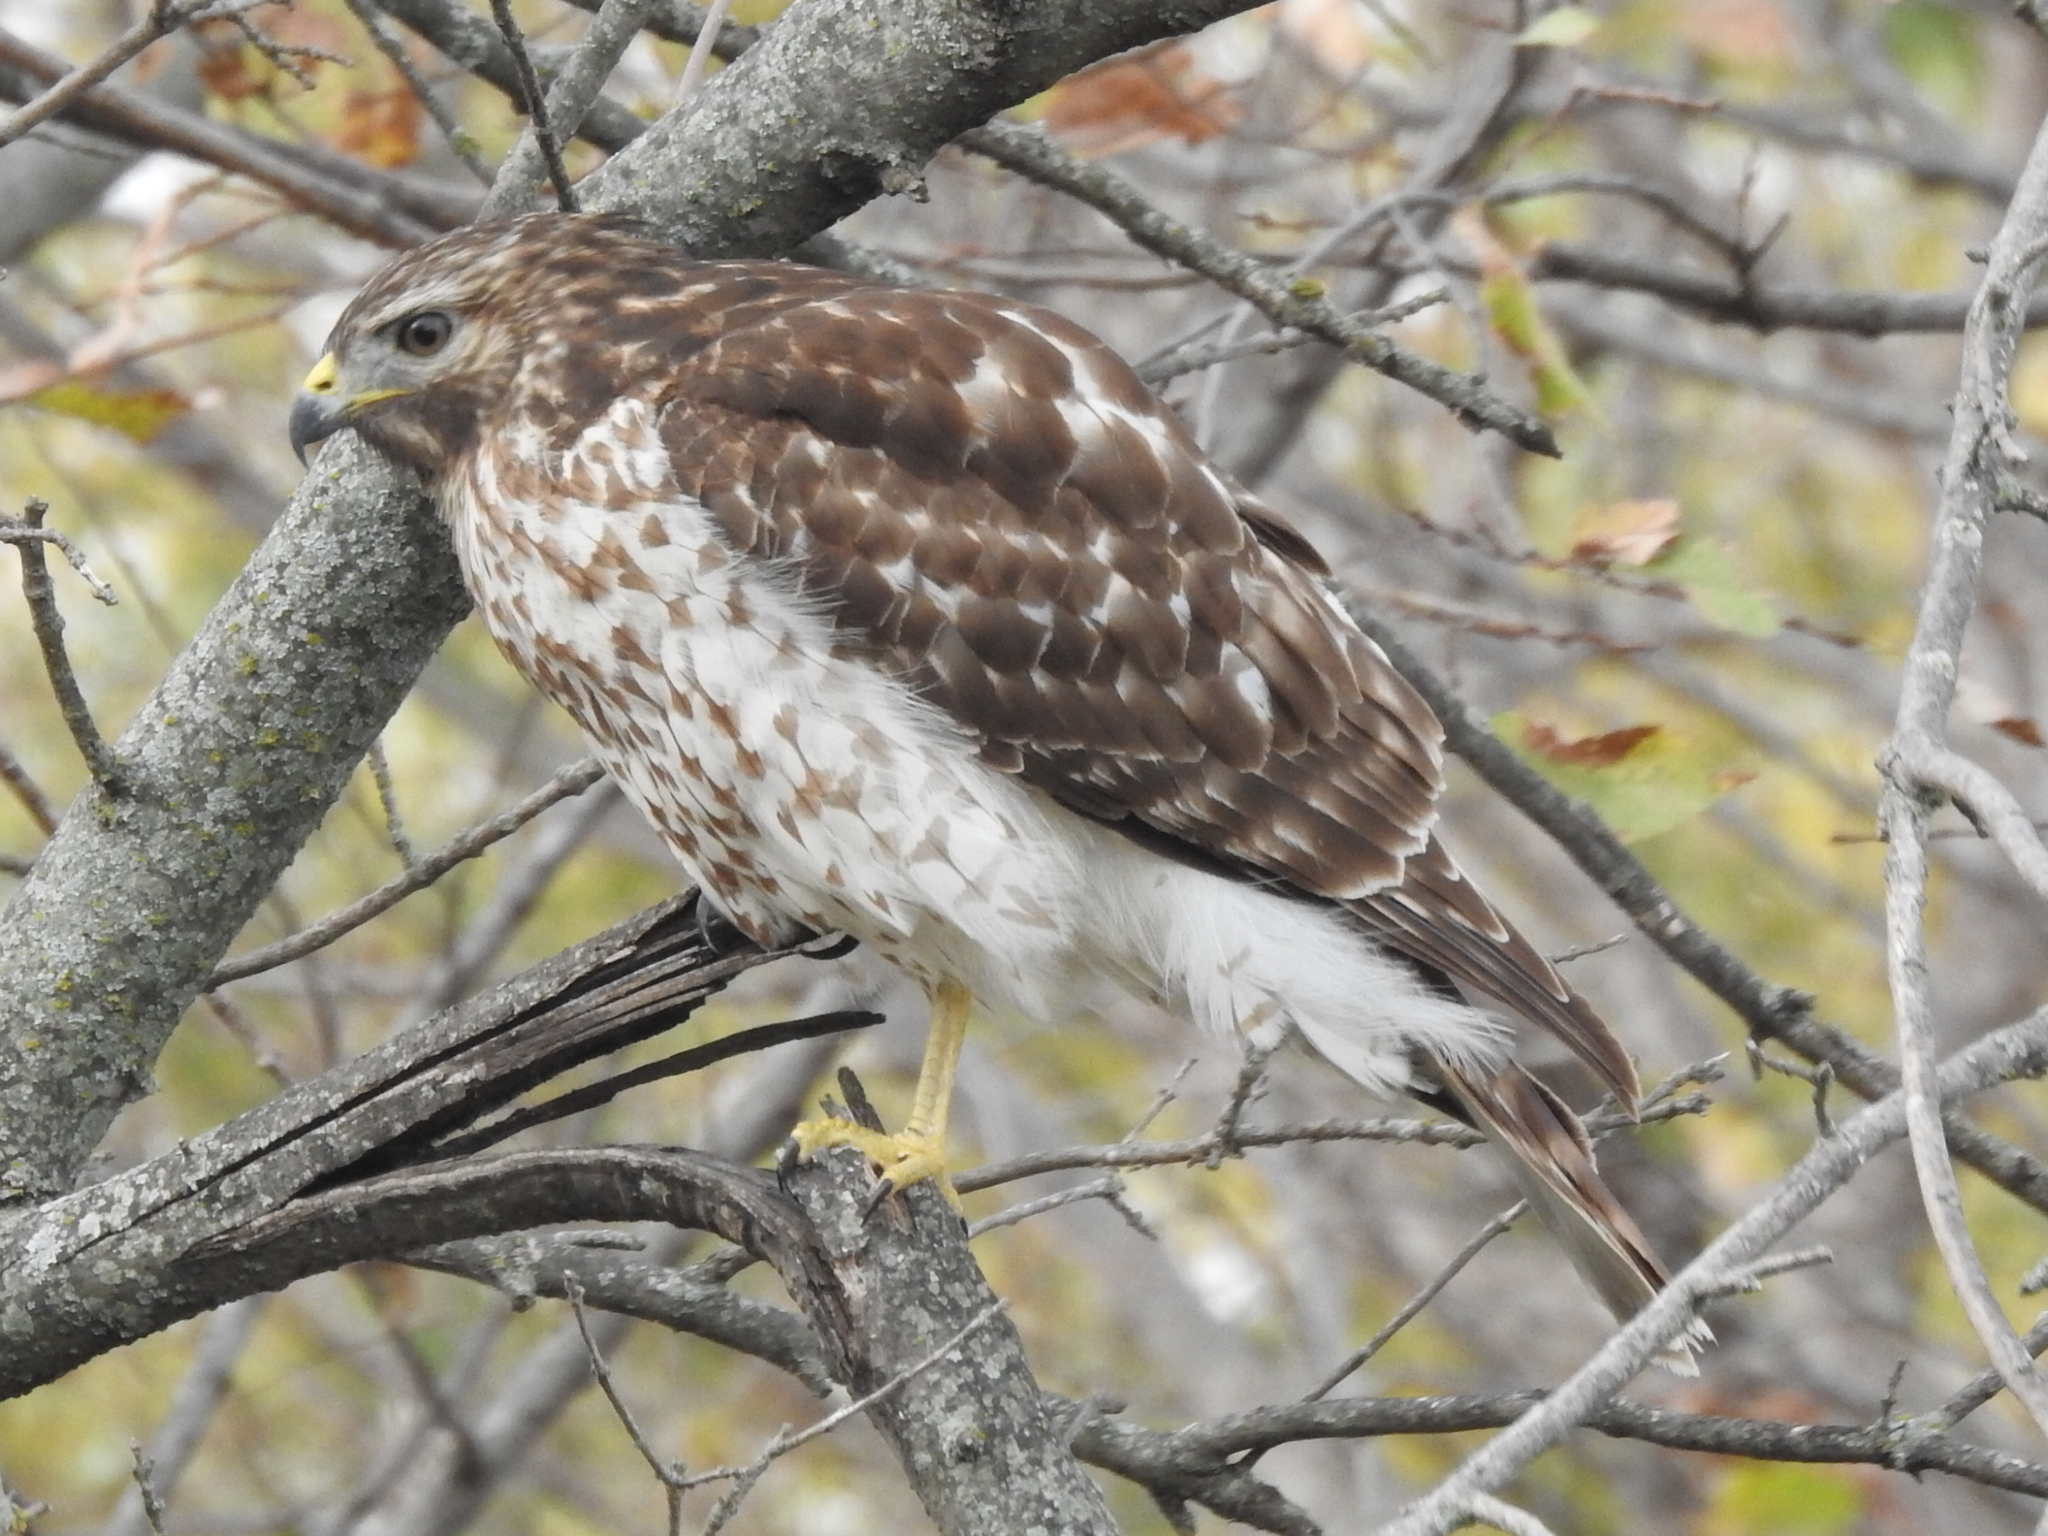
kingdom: Animalia
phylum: Chordata
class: Aves
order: Accipitriformes
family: Accipitridae
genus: Buteo
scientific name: Buteo lineatus
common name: Red-shouldered hawk
